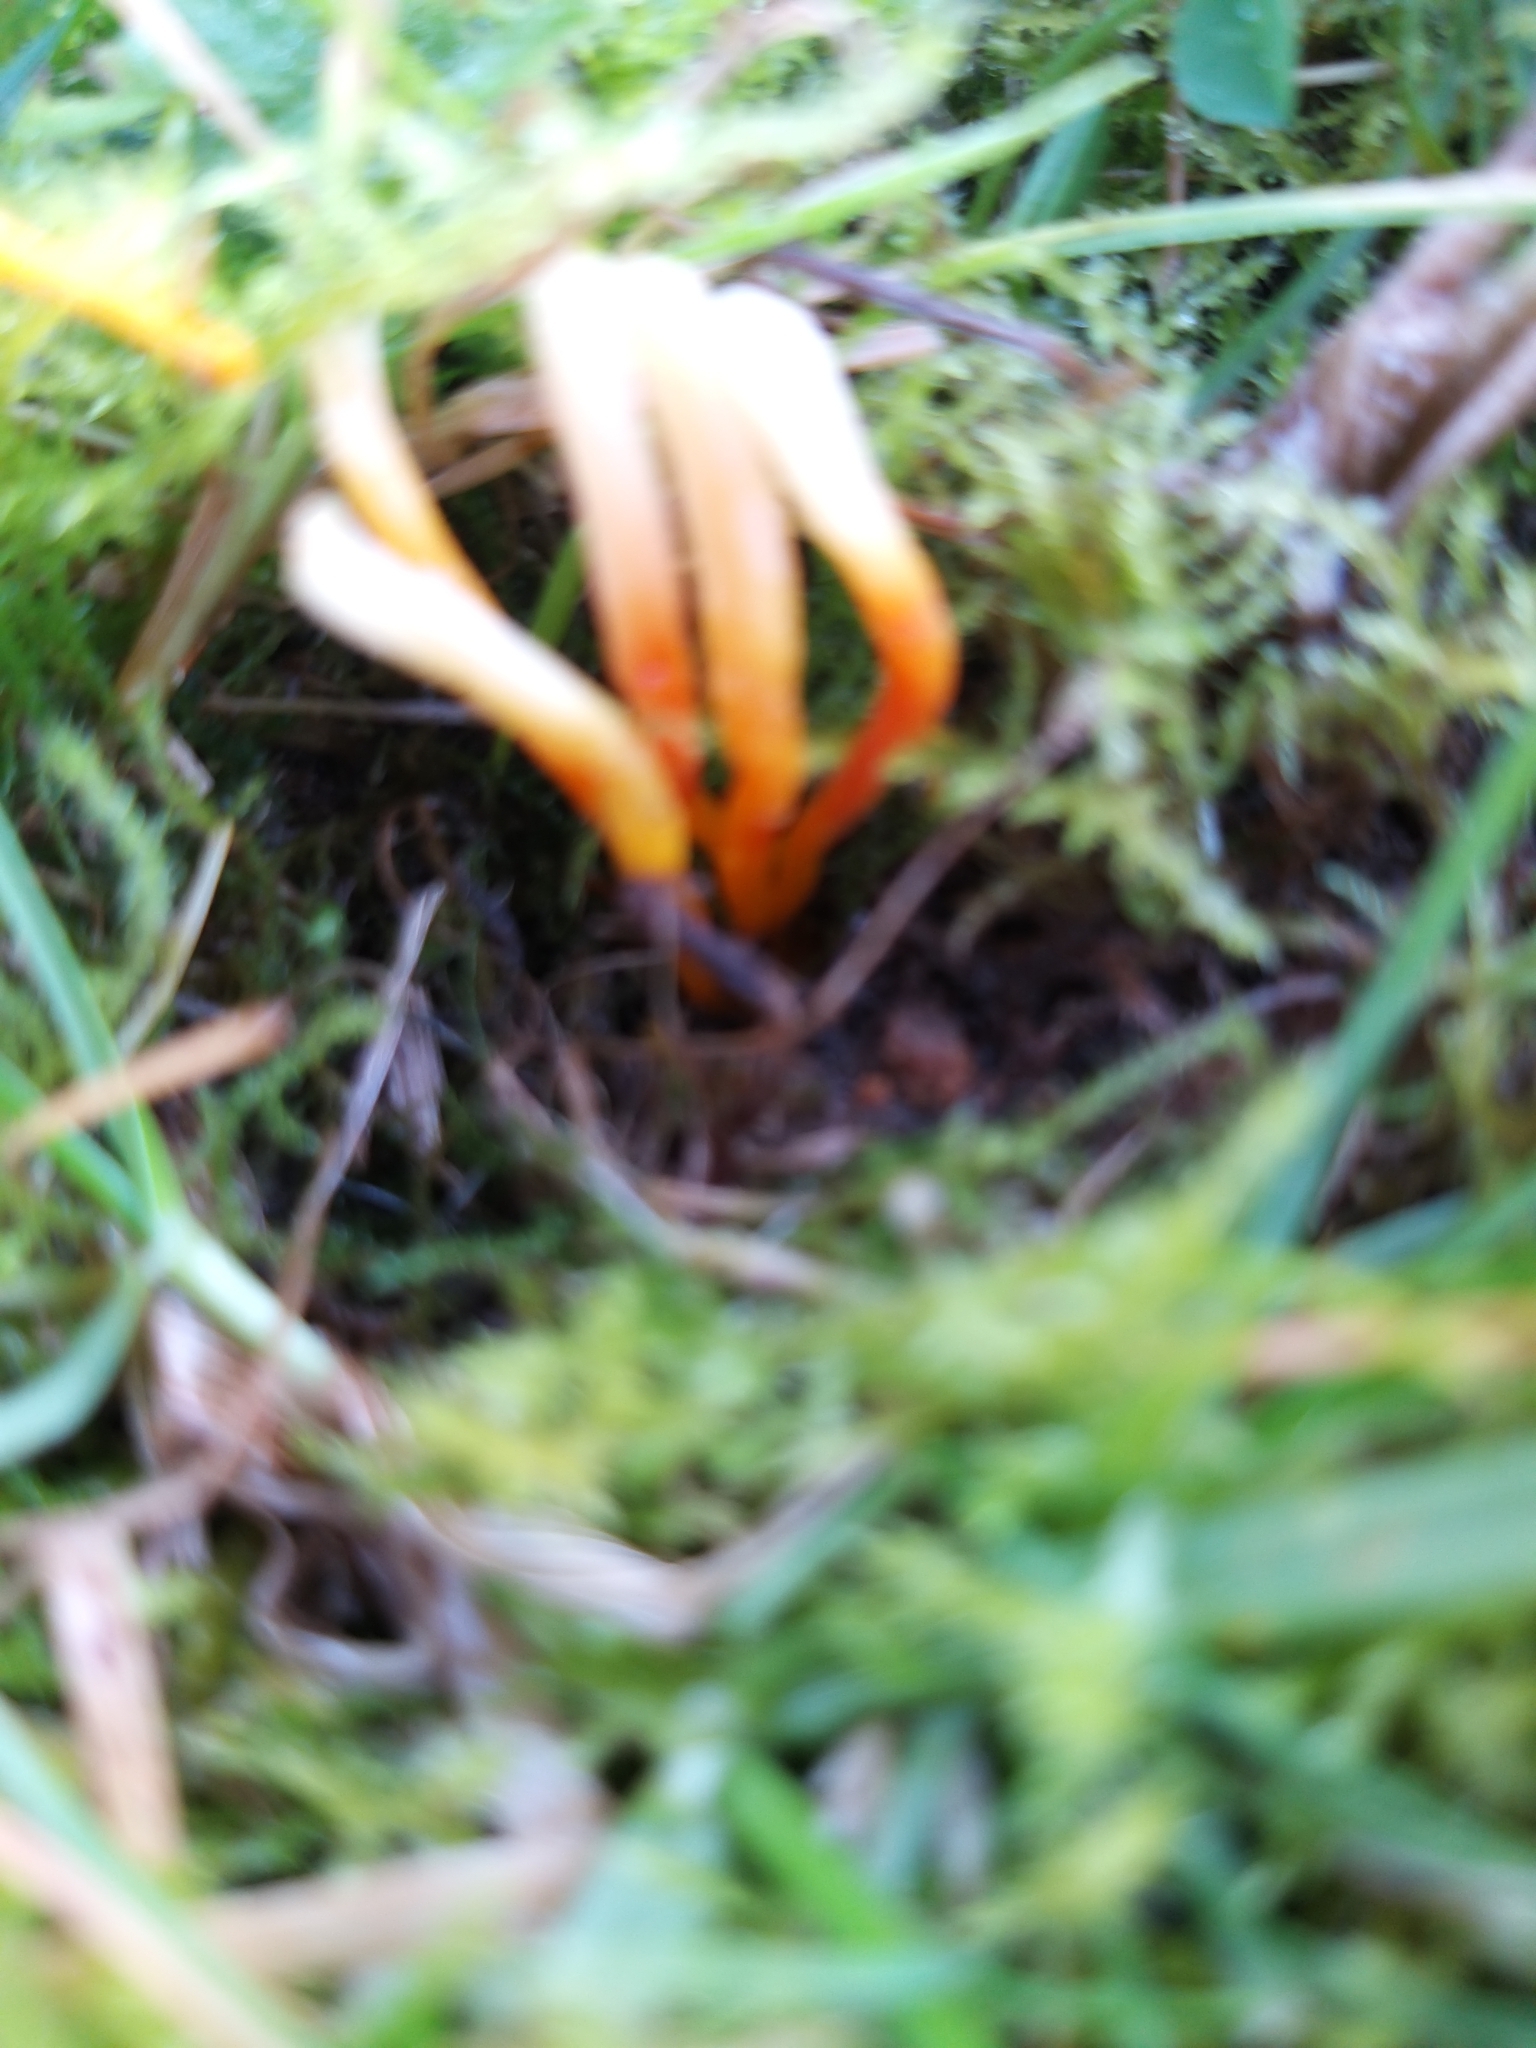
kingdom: Fungi
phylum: Basidiomycota
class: Agaricomycetes
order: Agaricales
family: Clavariaceae
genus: Clavulinopsis
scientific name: Clavulinopsis laeticolor
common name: Handsome club
